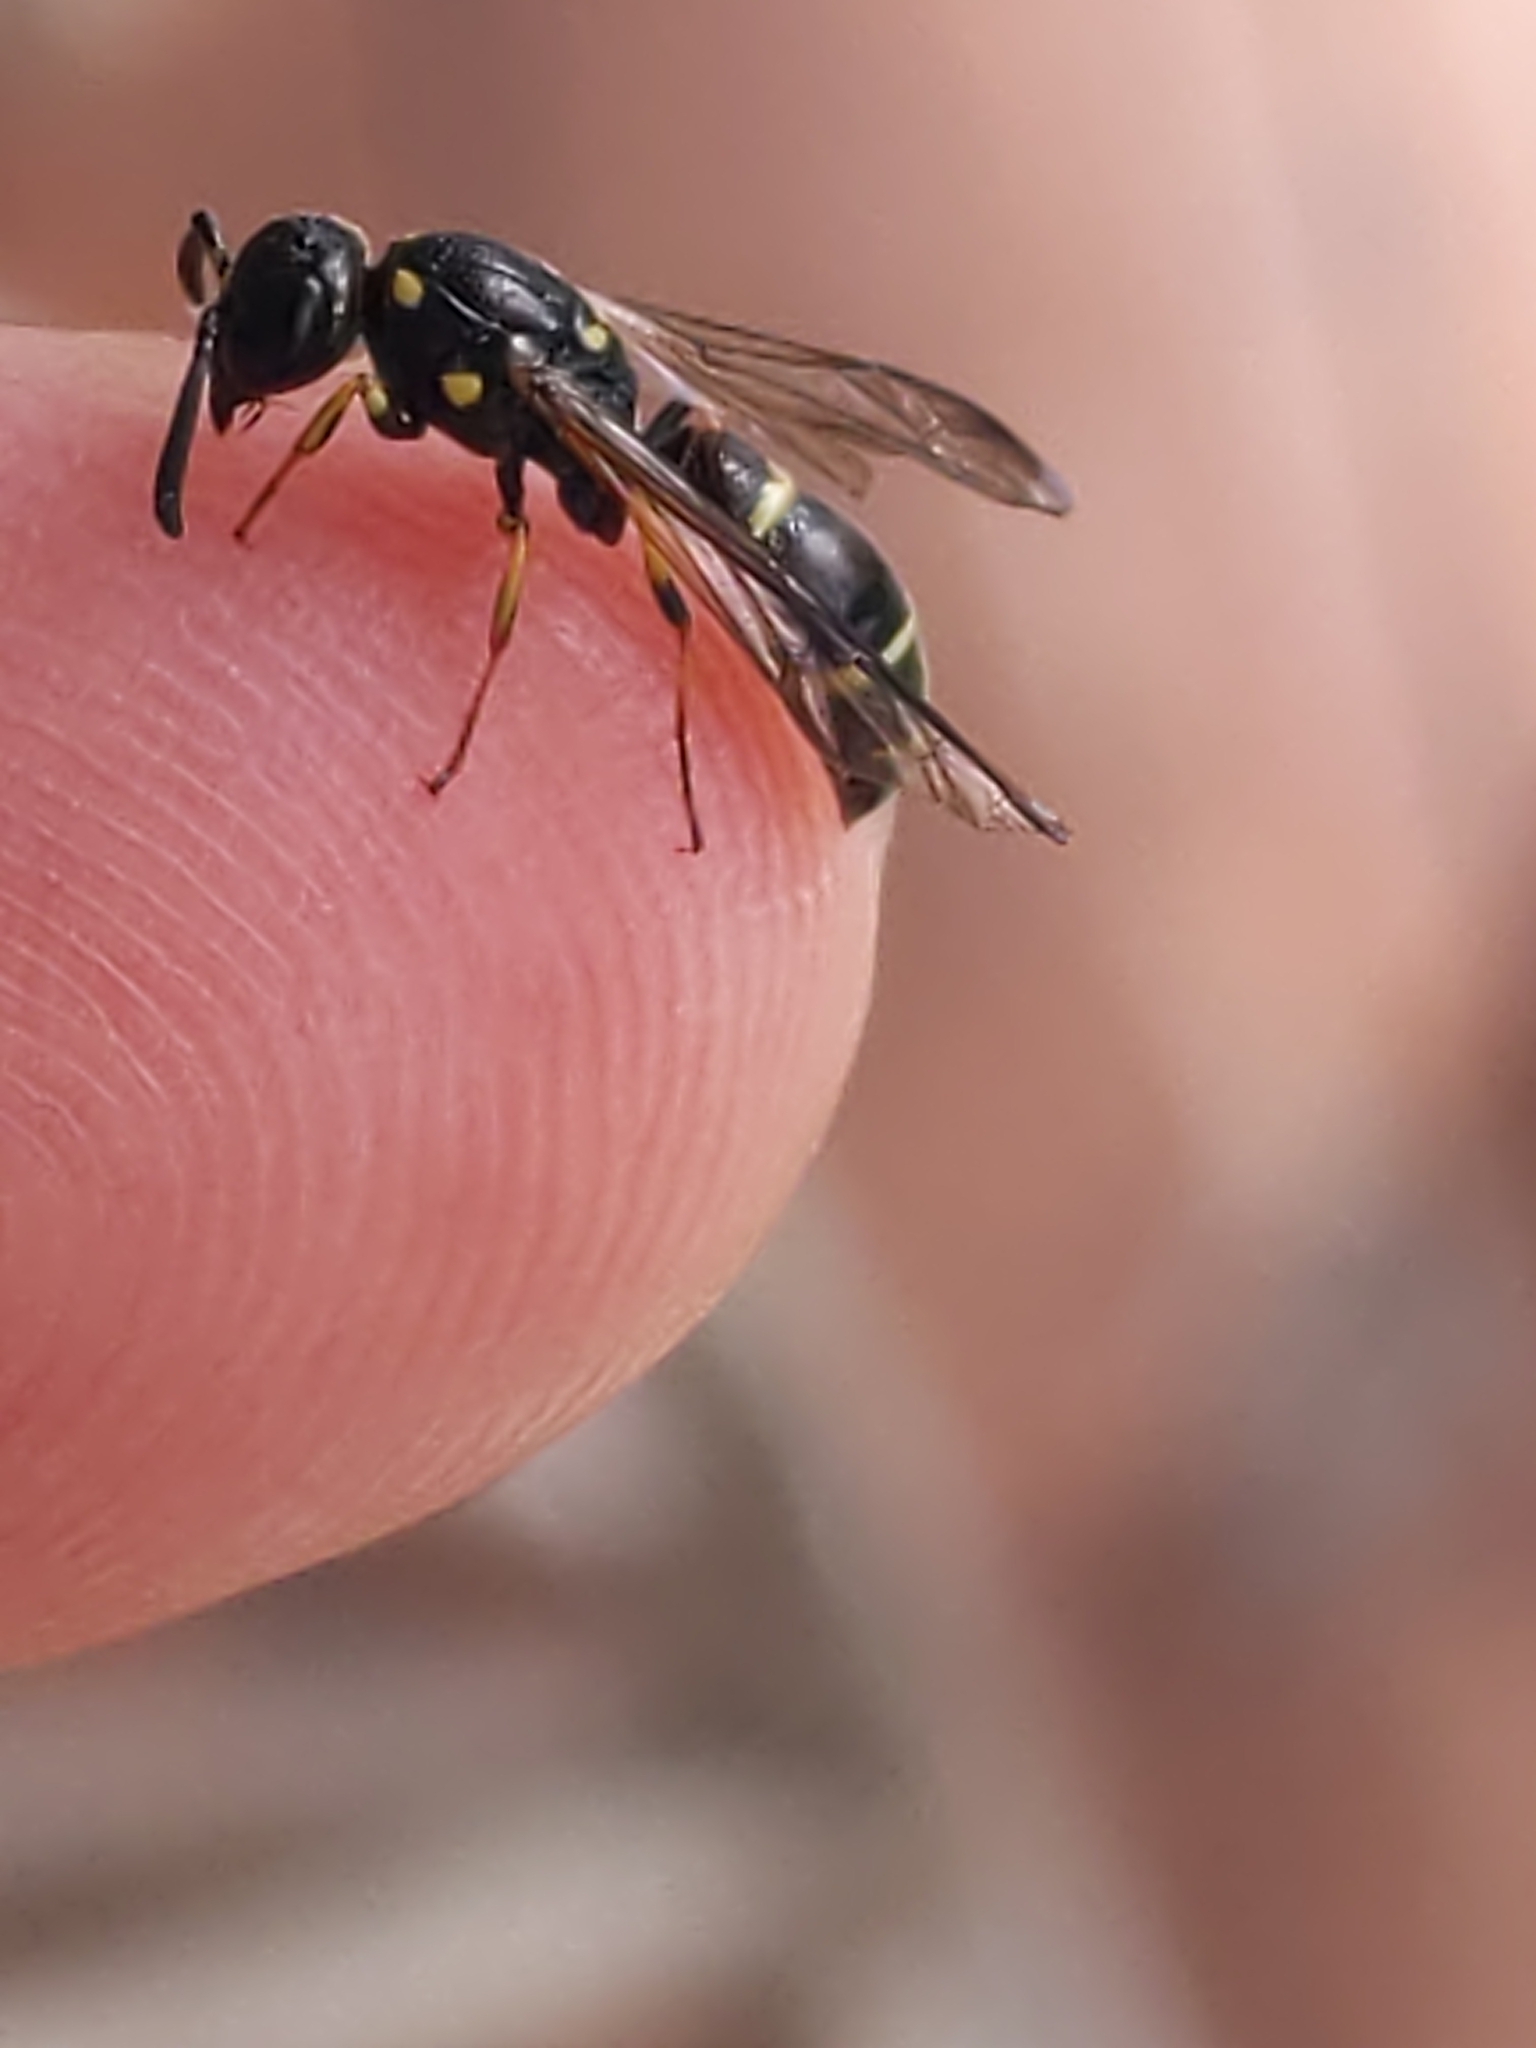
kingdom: Animalia
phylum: Arthropoda
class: Insecta
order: Hymenoptera
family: Eumenidae
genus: Symmorphus
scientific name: Symmorphus
